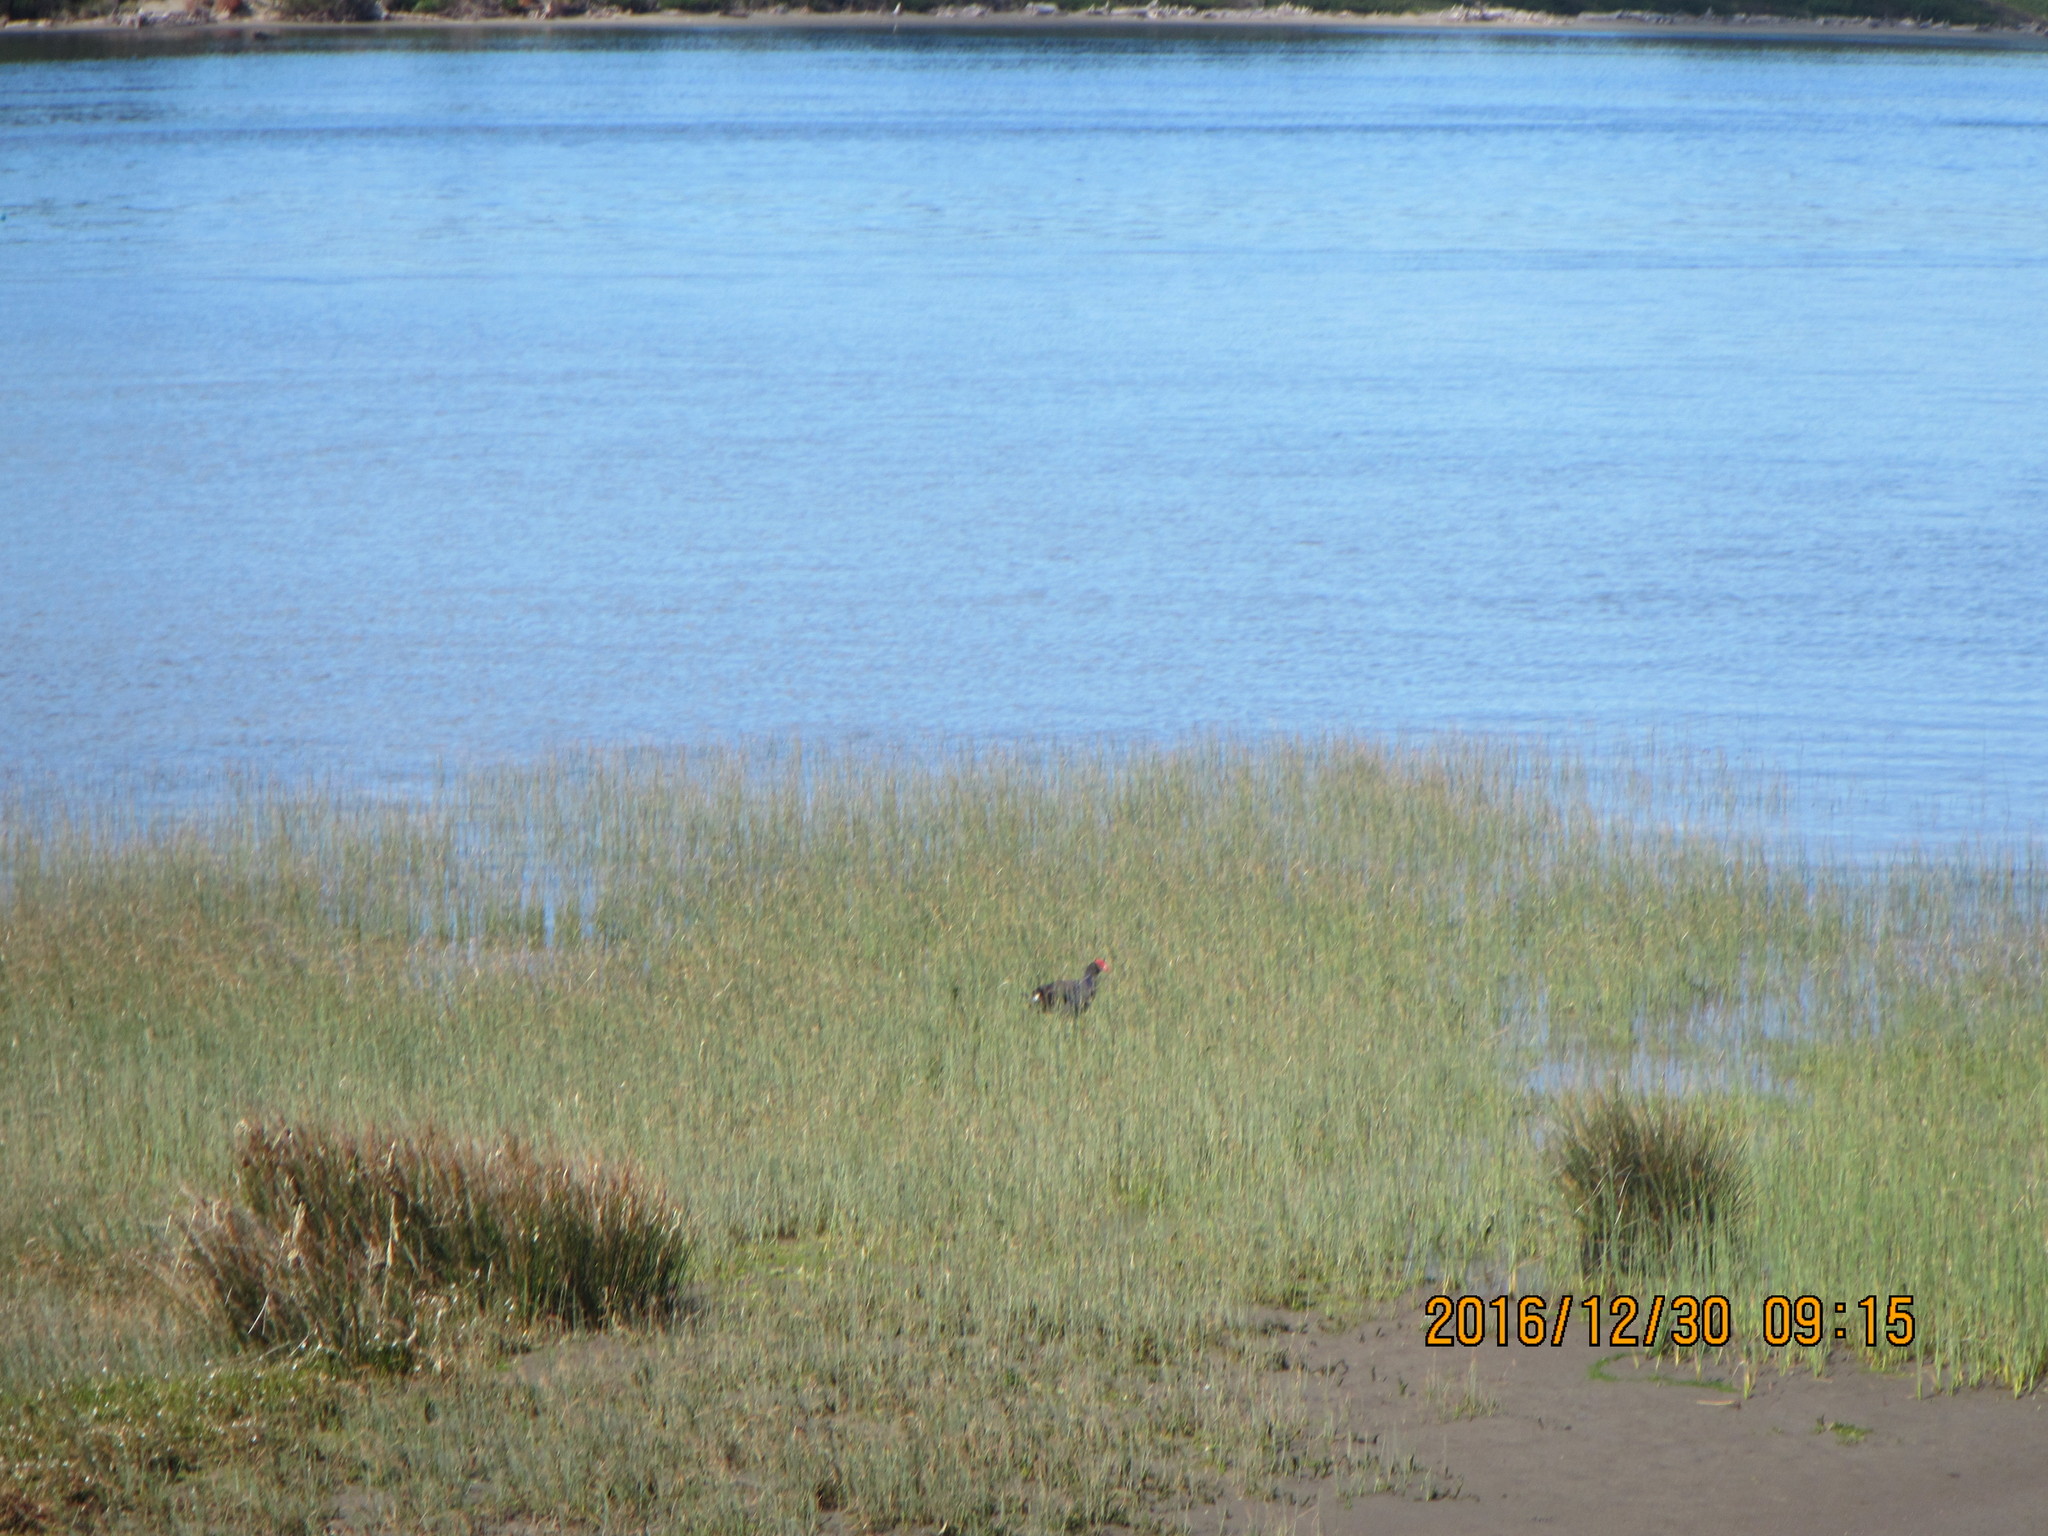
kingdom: Animalia
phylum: Chordata
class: Aves
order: Gruiformes
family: Rallidae
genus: Porphyrio
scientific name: Porphyrio melanotus
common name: Australasian swamphen
